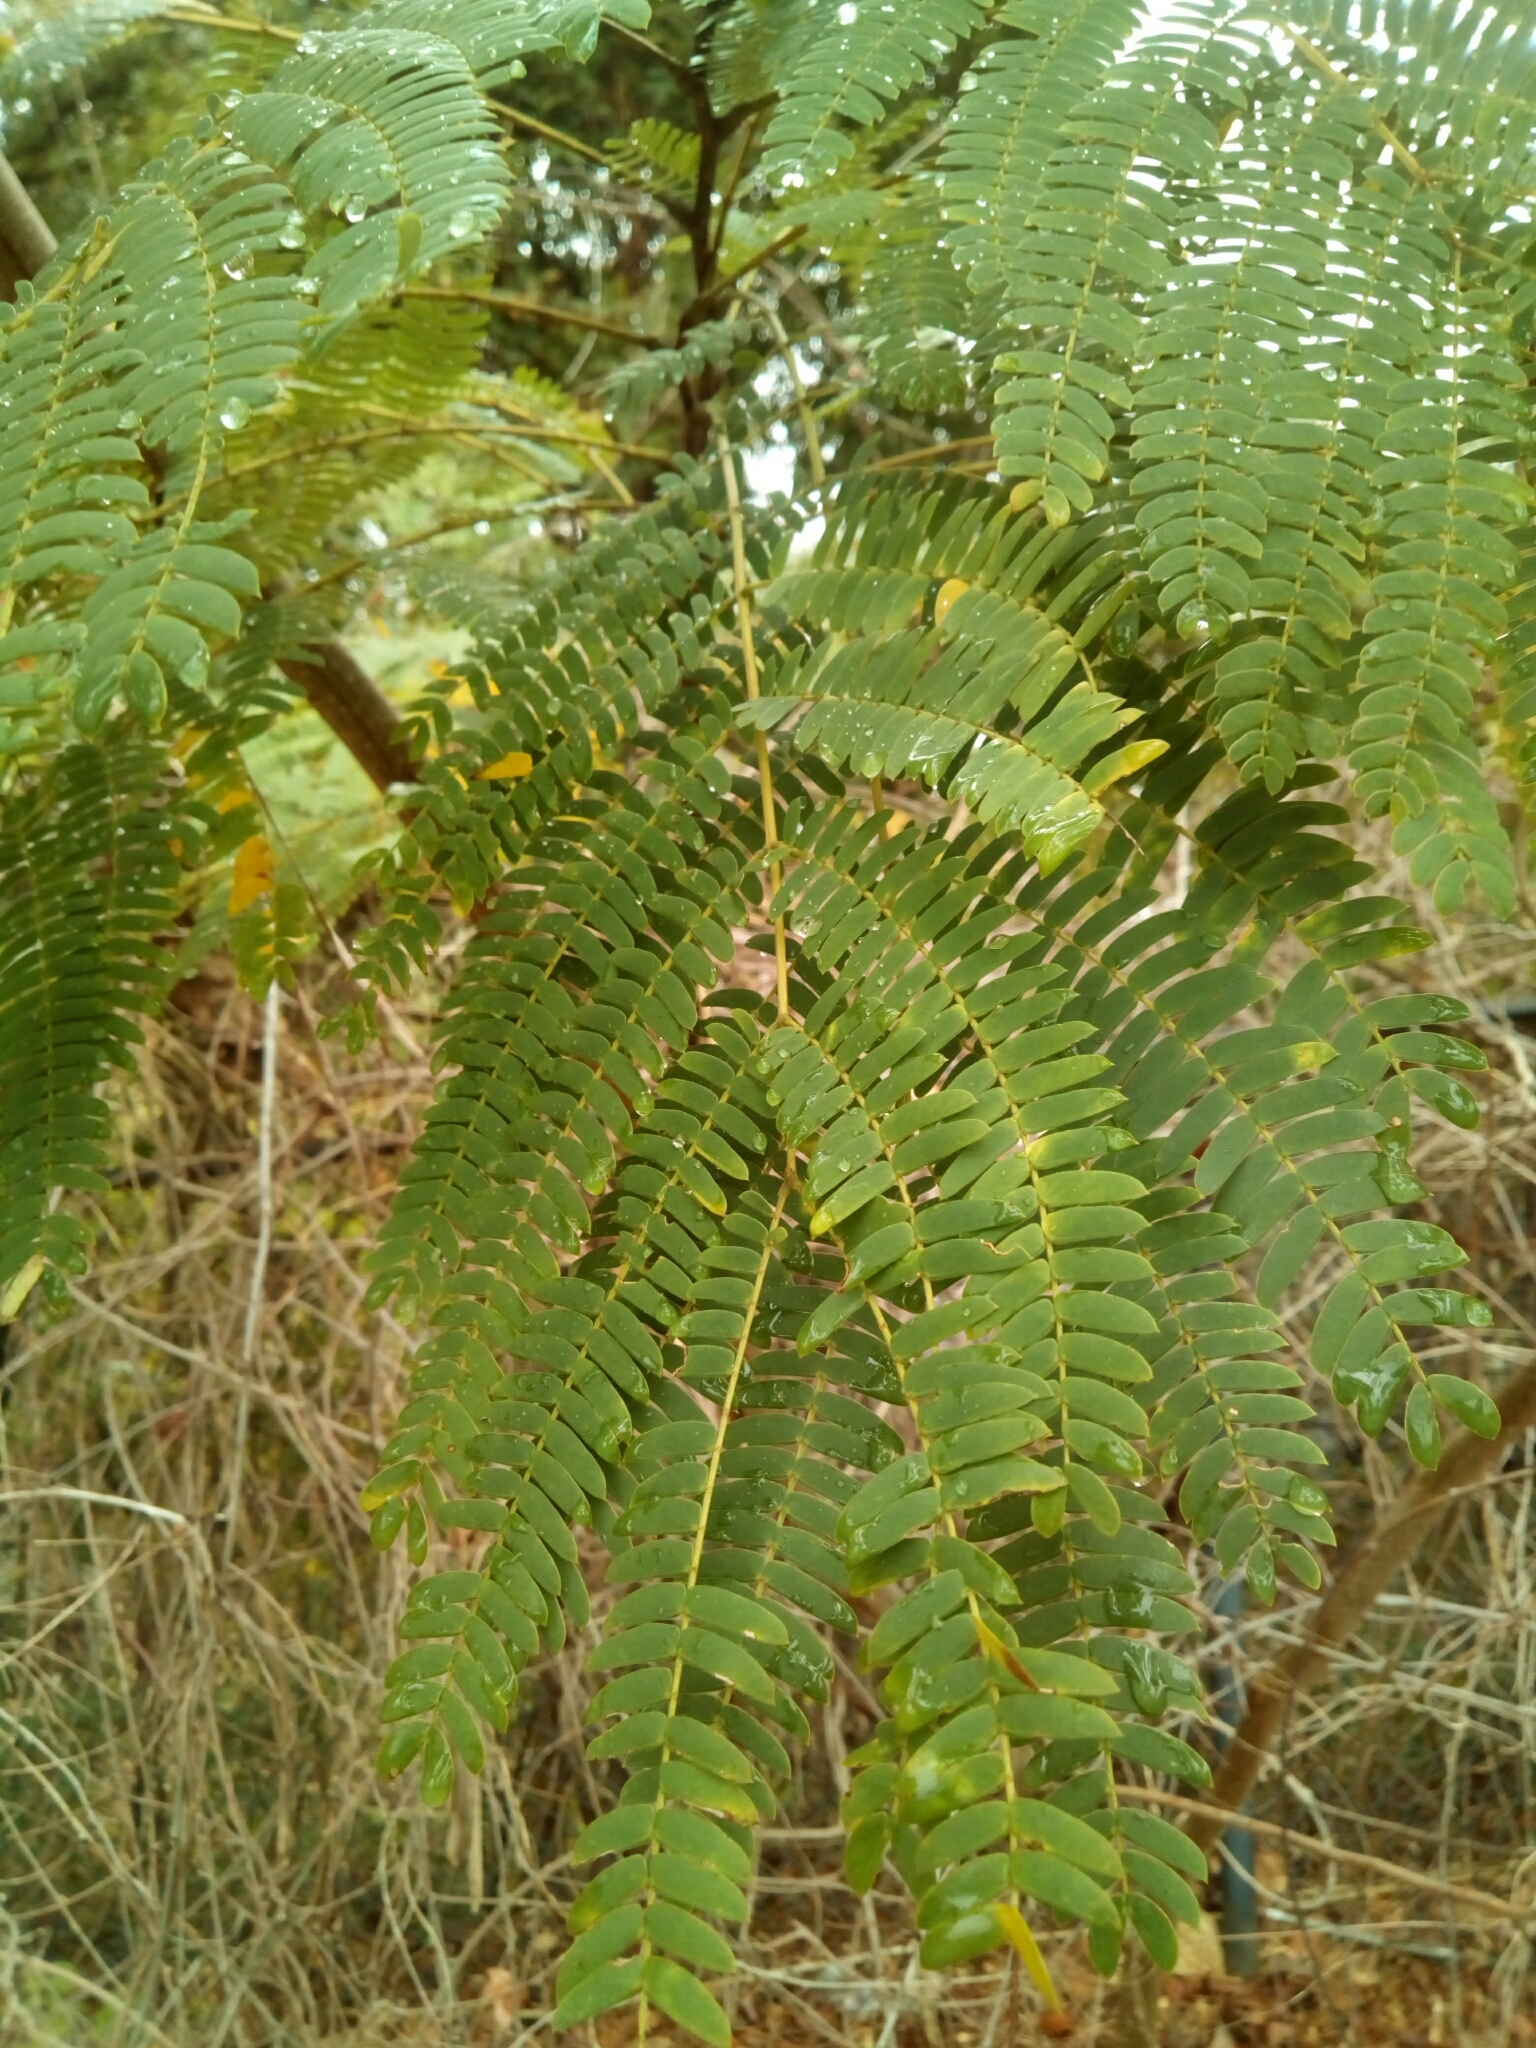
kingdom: Plantae
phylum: Tracheophyta
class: Magnoliopsida
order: Fabales
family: Fabaceae
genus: Albizia
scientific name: Albizia julibrissin
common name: Silktree
